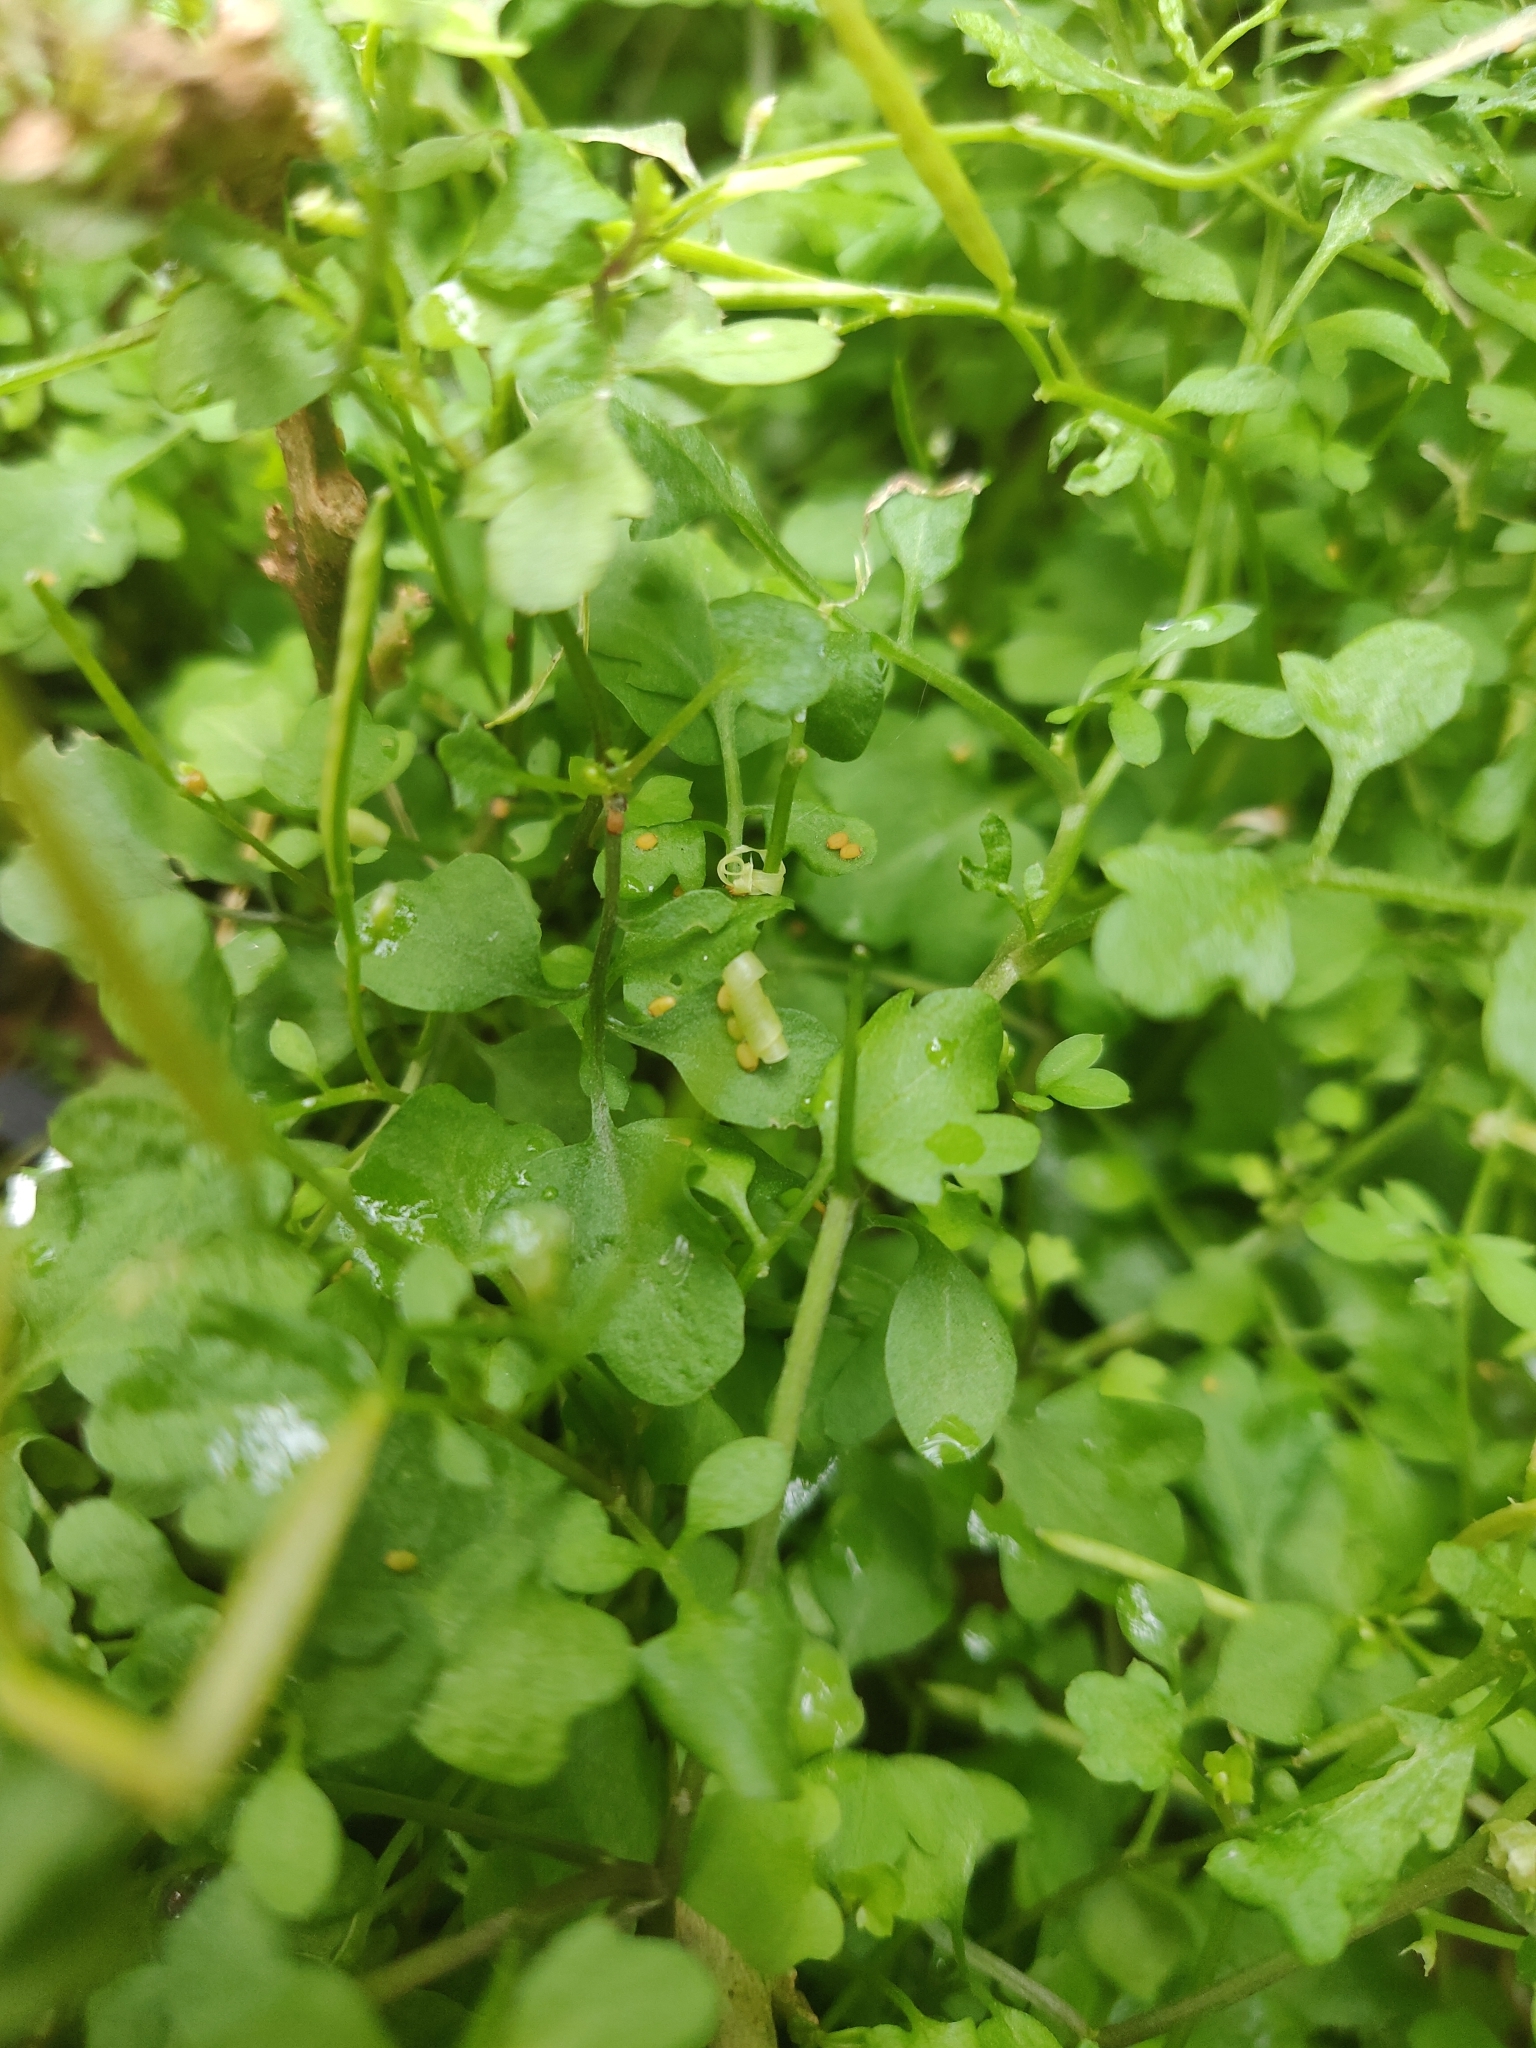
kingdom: Plantae
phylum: Tracheophyta
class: Magnoliopsida
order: Brassicales
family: Brassicaceae
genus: Cardamine
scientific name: Cardamine hirsuta
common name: Hairy bittercress
